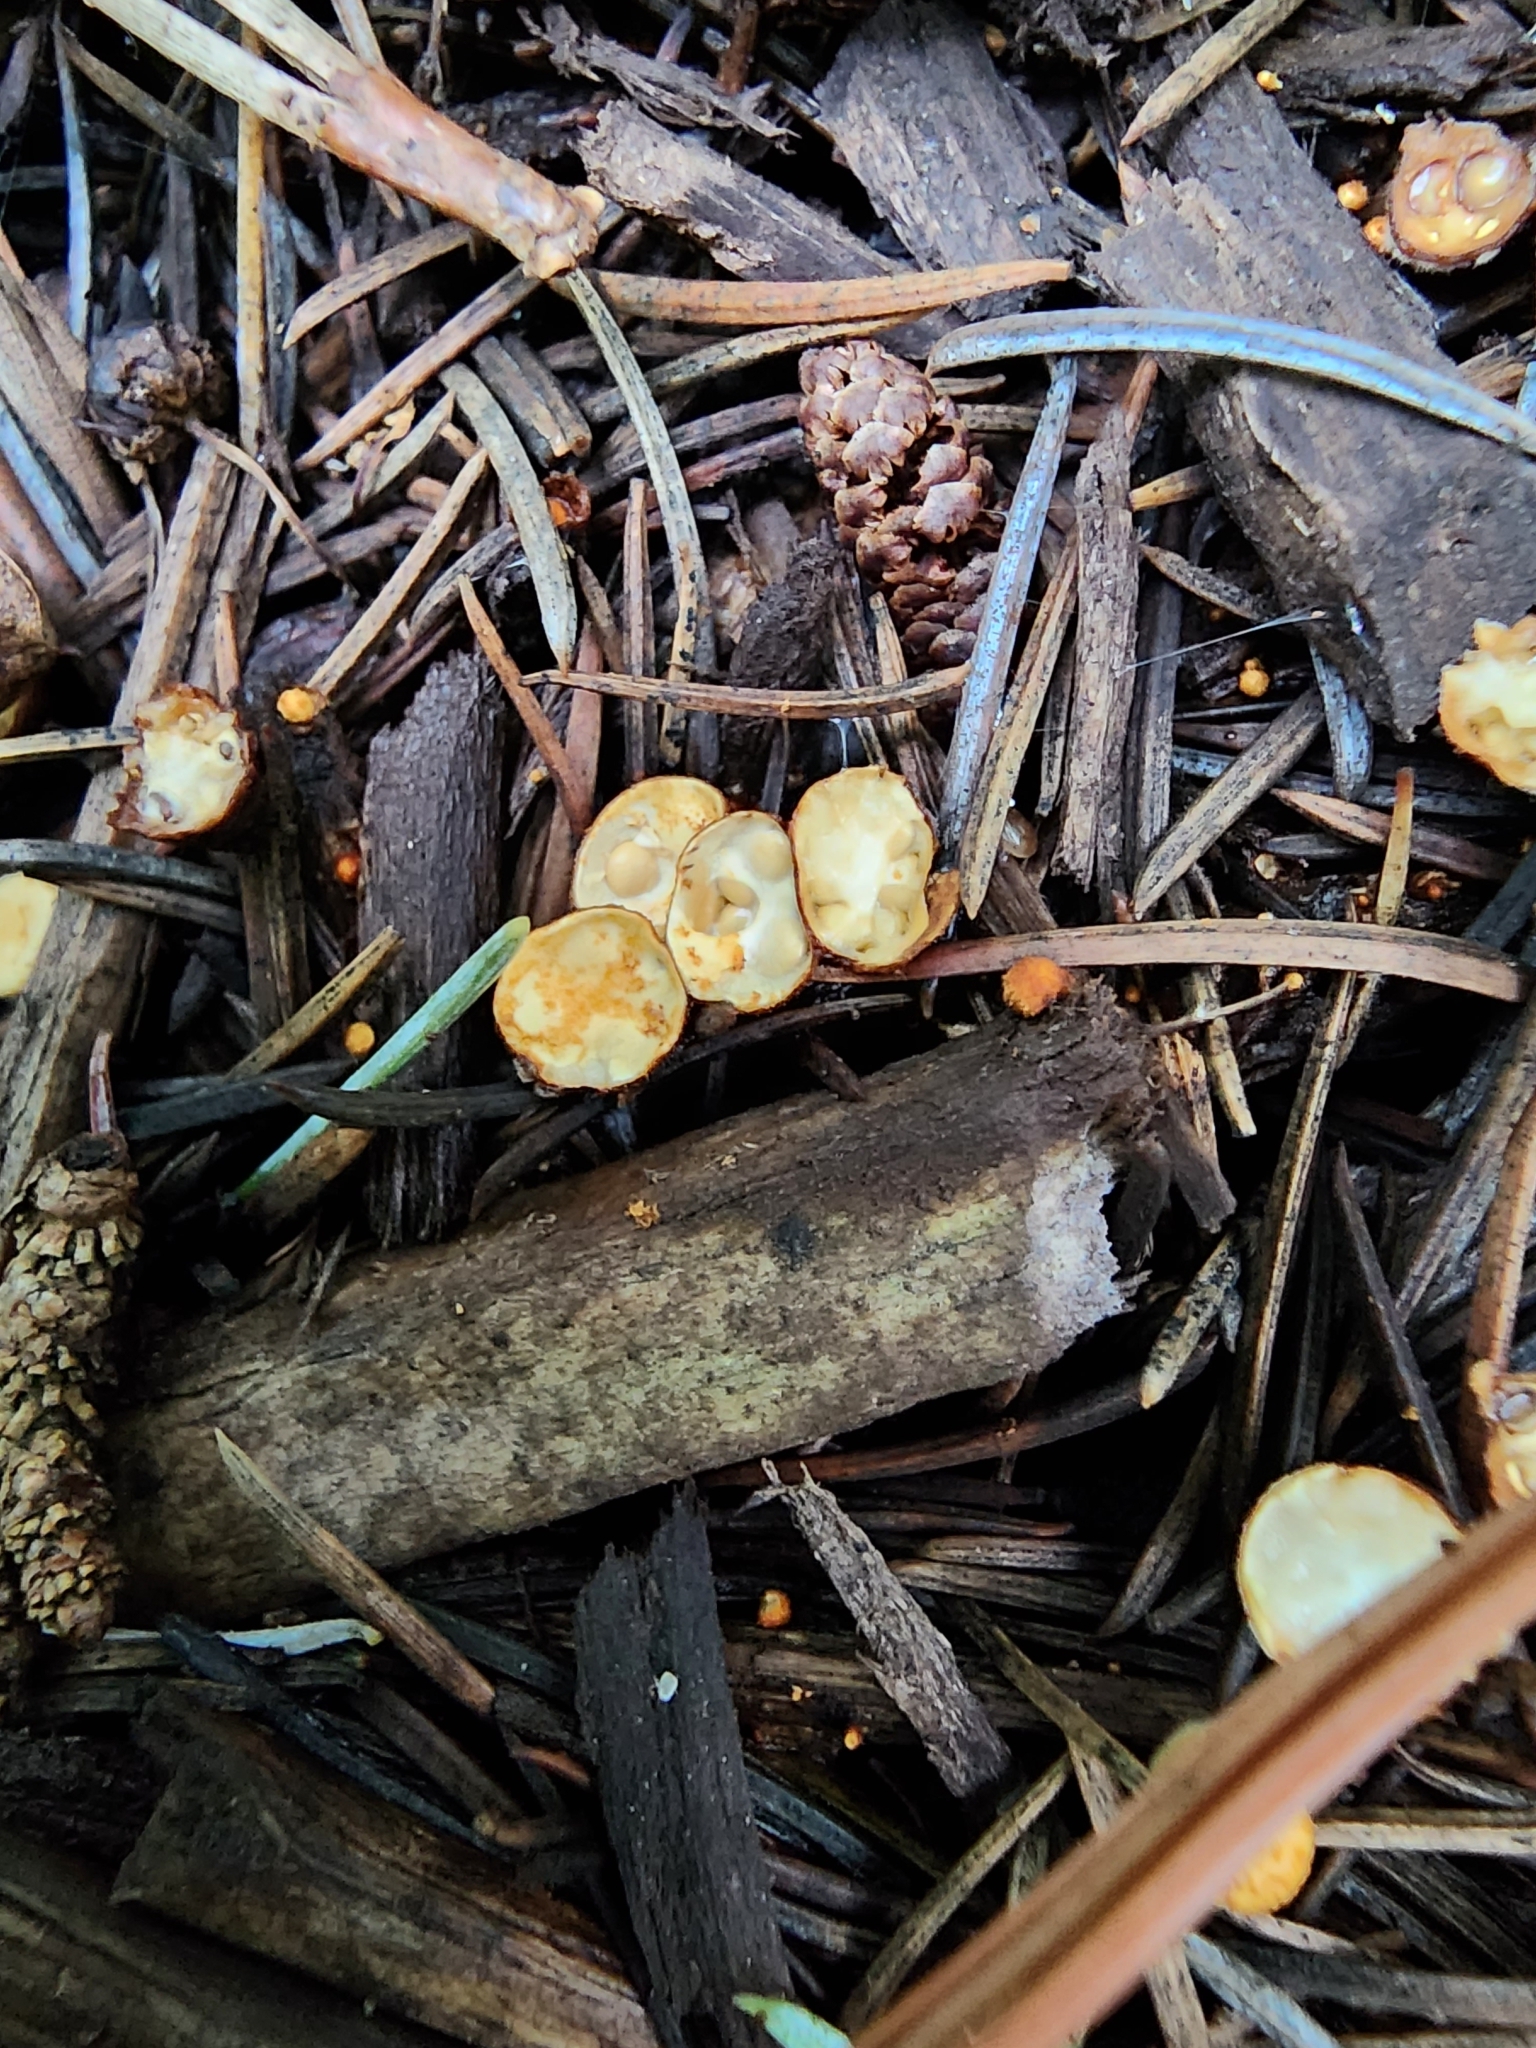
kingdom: Fungi
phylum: Basidiomycota
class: Agaricomycetes
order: Agaricales
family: Nidulariaceae
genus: Crucibulum
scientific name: Crucibulum laeve
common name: Common bird's nest
